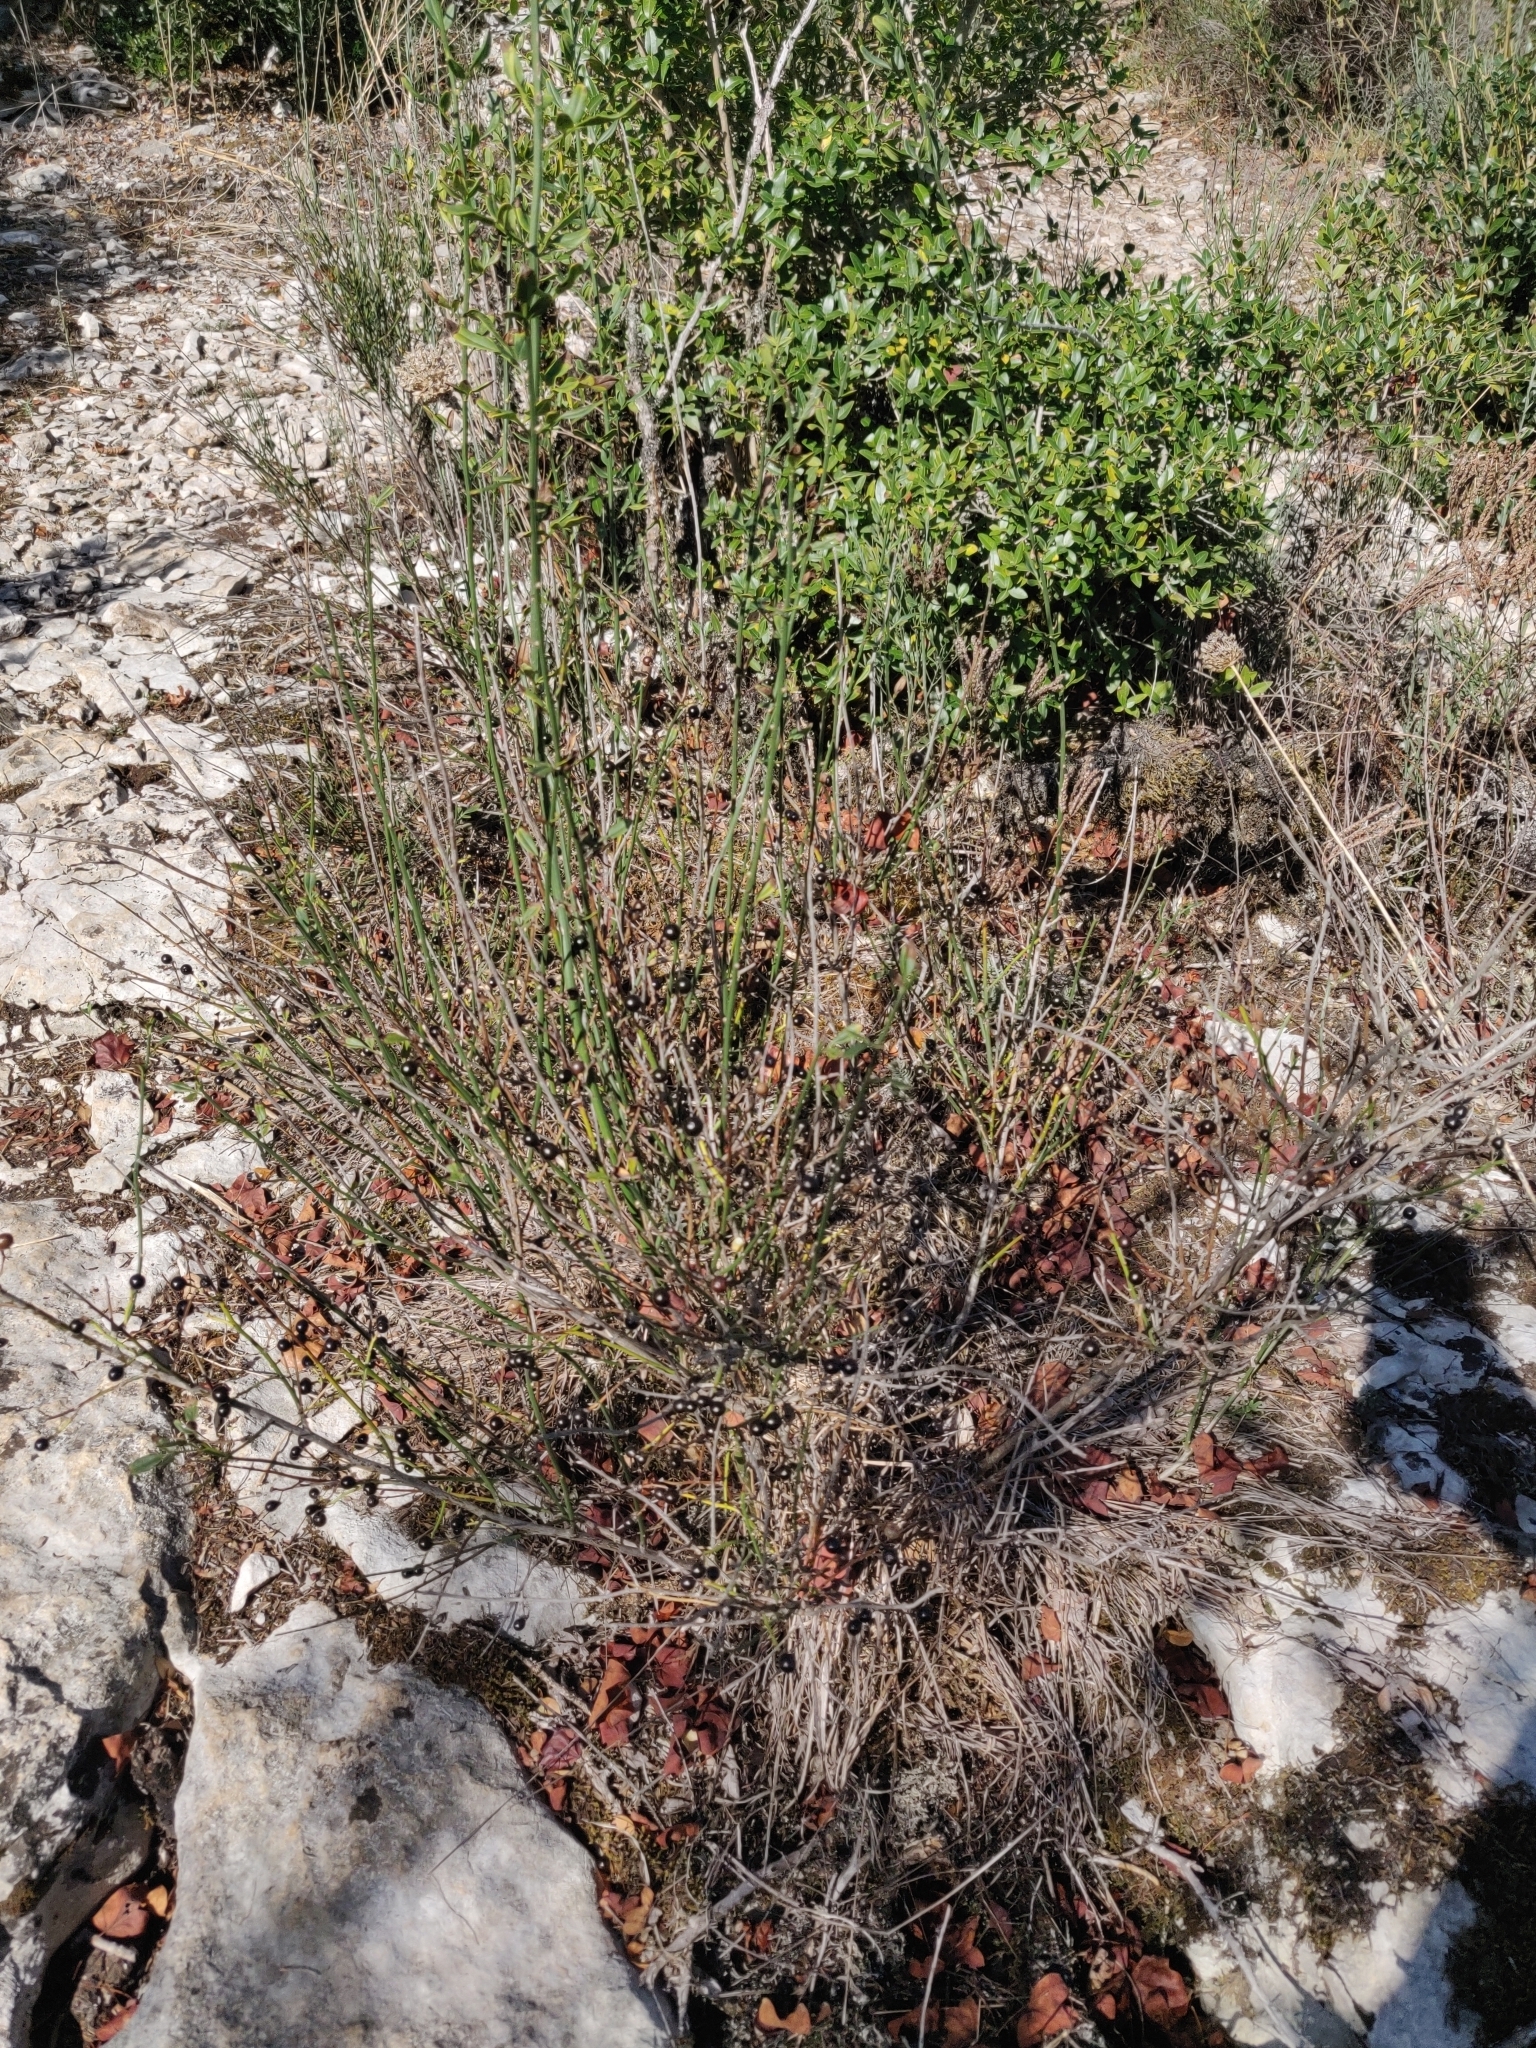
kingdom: Plantae
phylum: Tracheophyta
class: Magnoliopsida
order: Lamiales
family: Oleaceae
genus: Chrysojasminum
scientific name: Chrysojasminum fruticans
